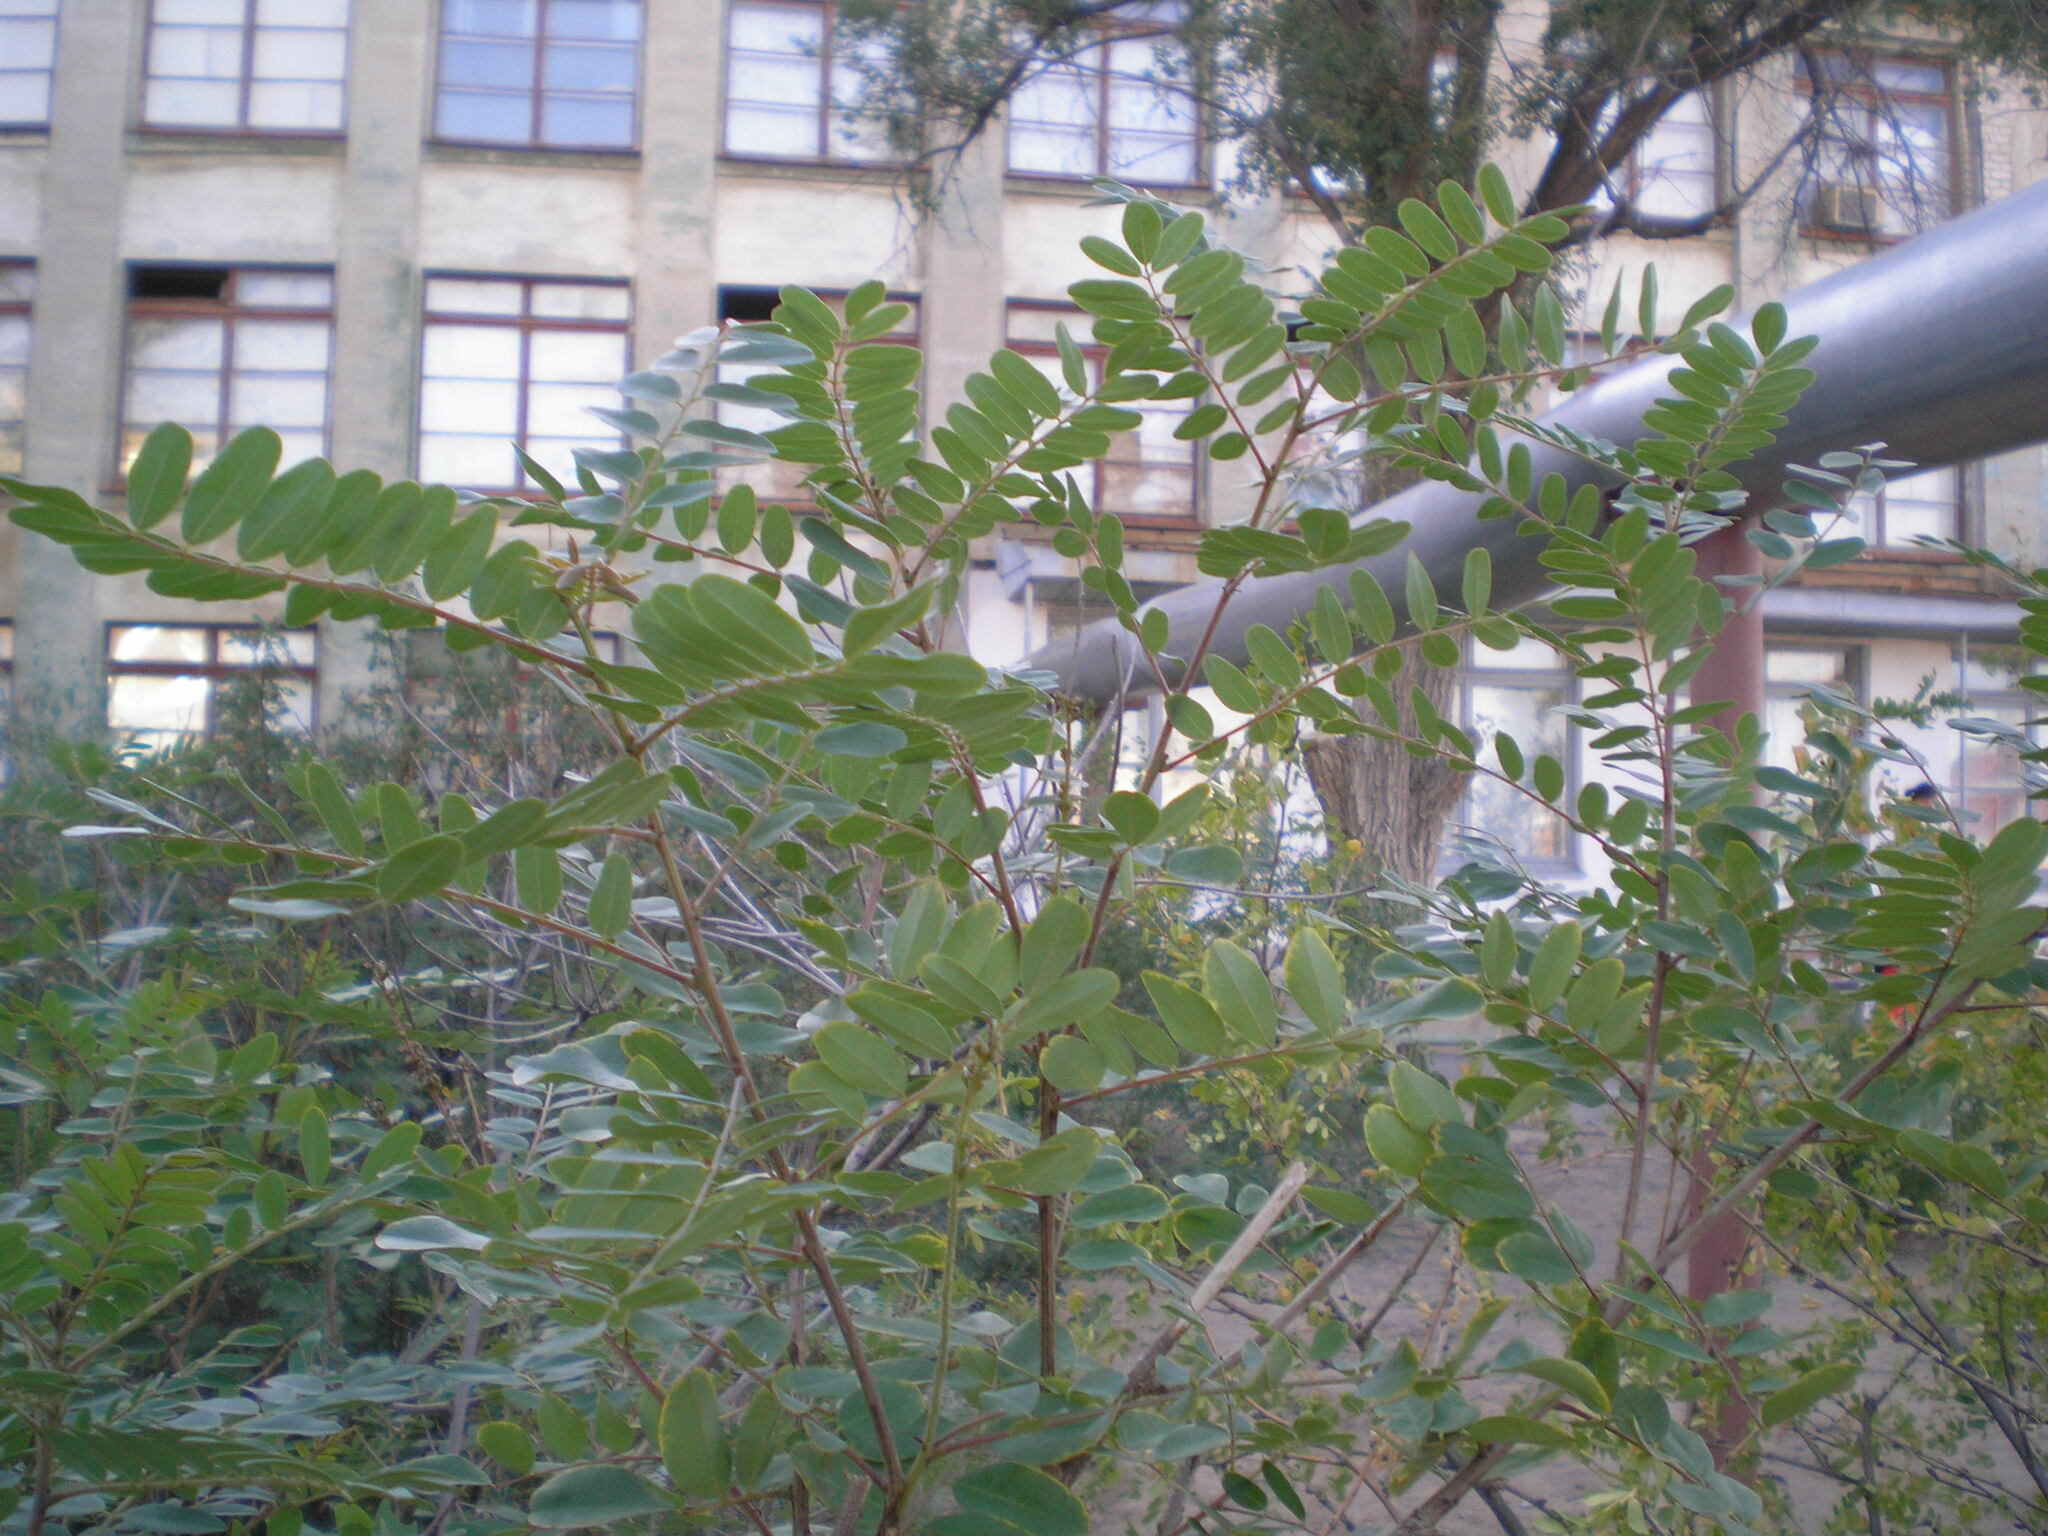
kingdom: Plantae
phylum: Tracheophyta
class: Magnoliopsida
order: Fabales
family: Fabaceae
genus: Robinia
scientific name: Robinia pseudoacacia
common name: Black locust
